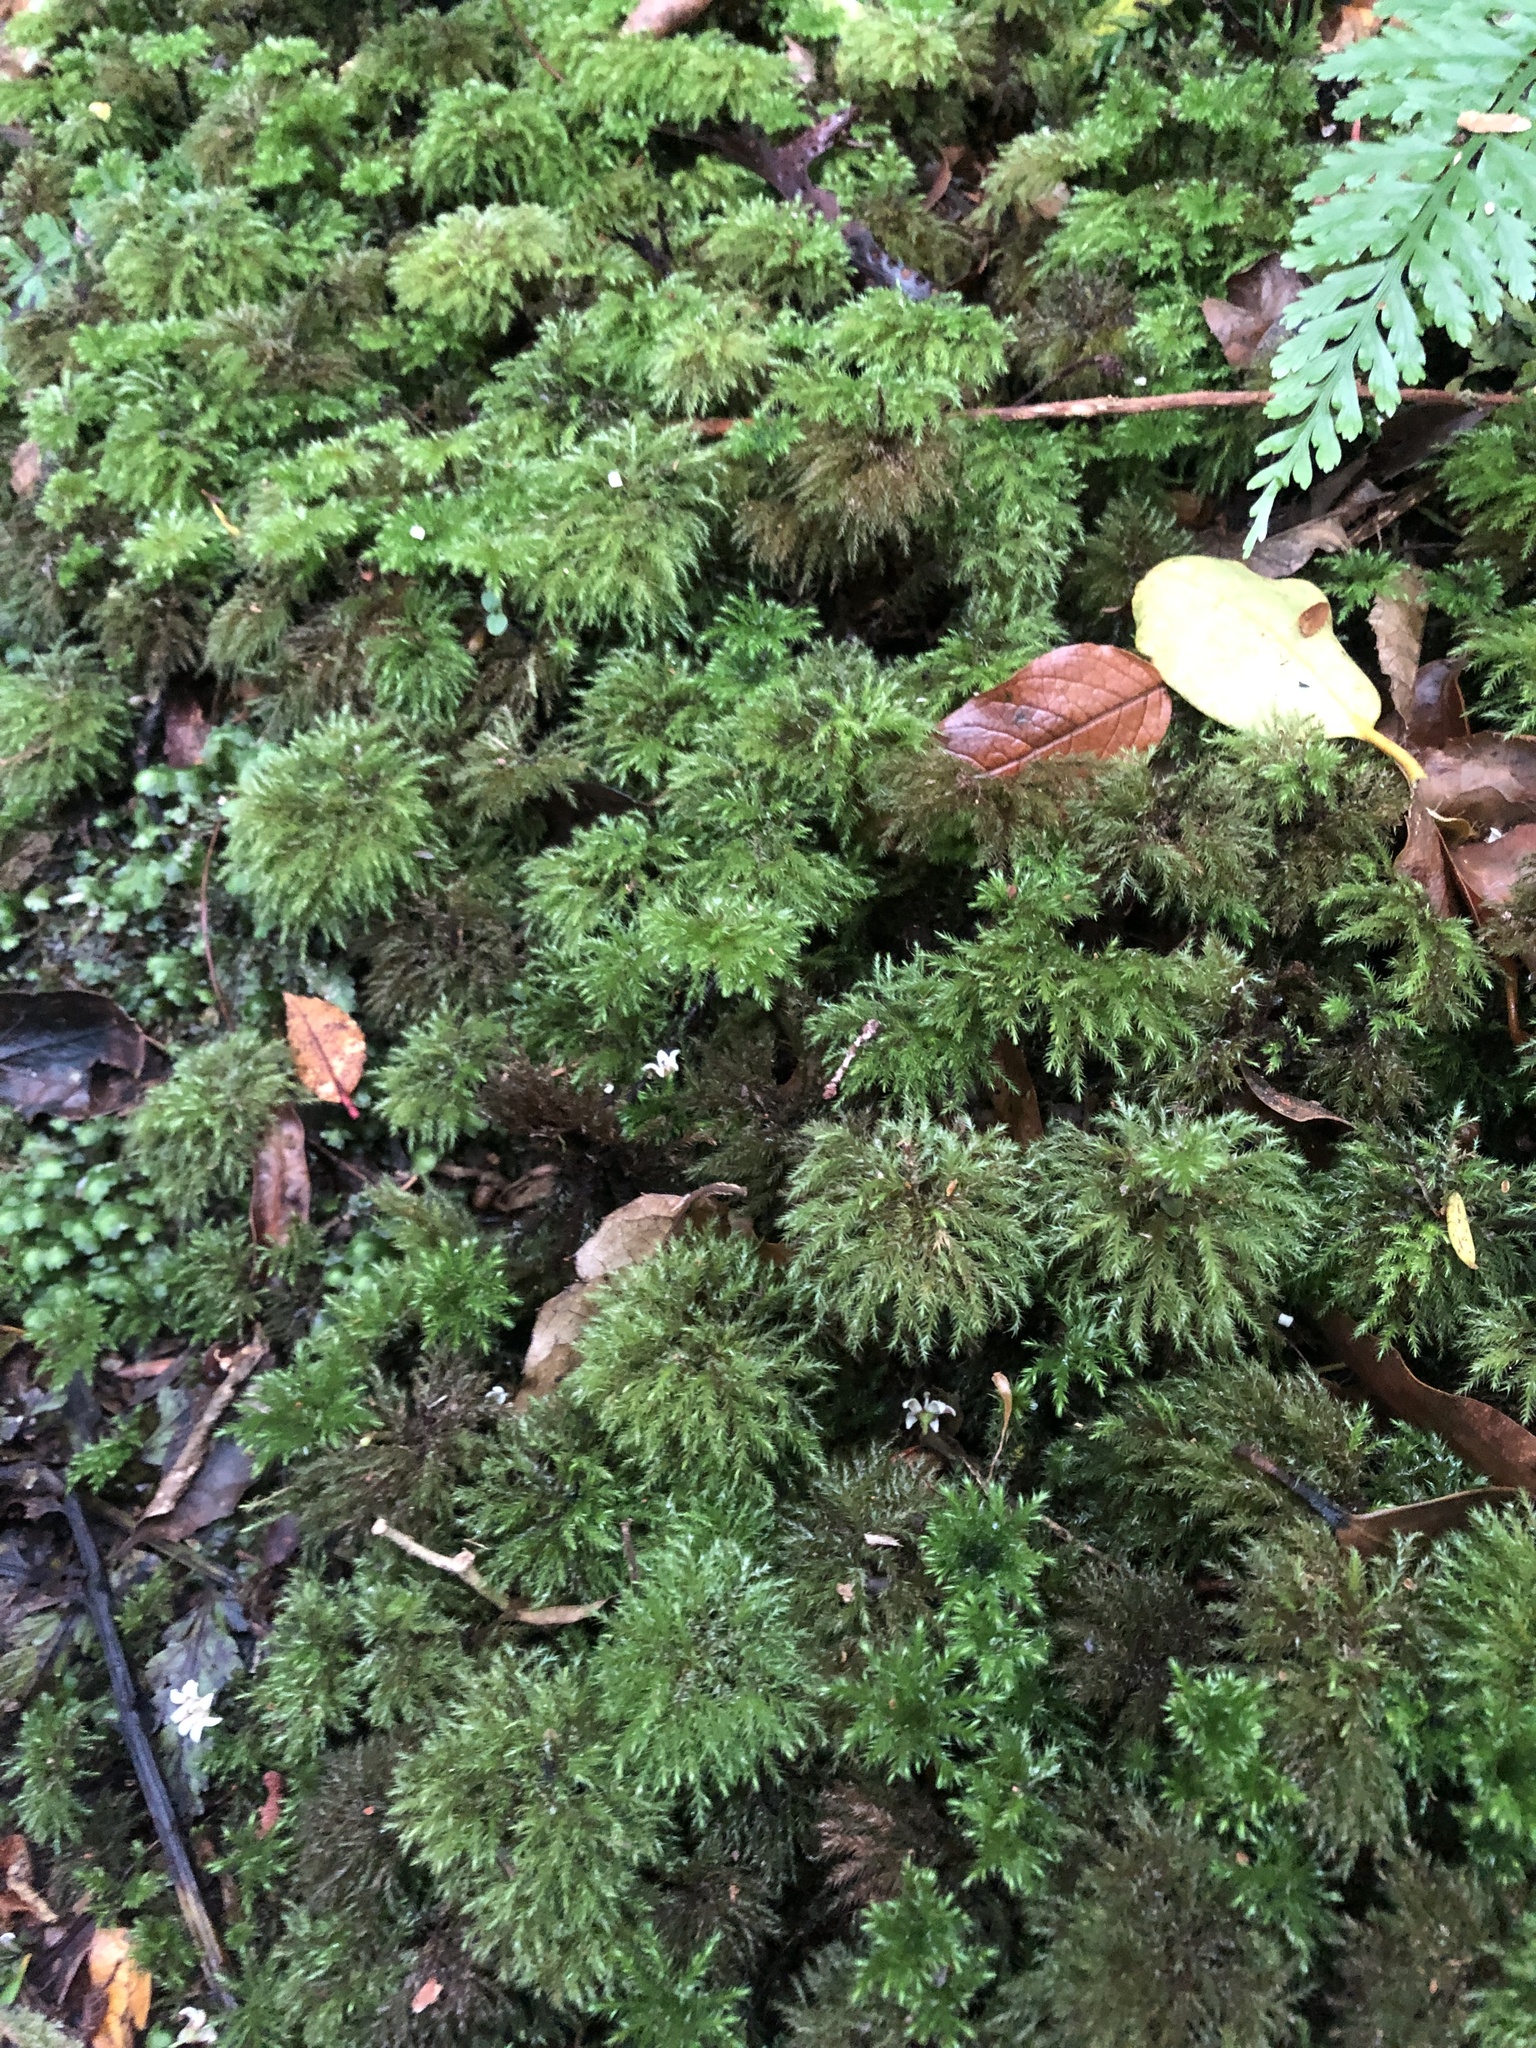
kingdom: Plantae
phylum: Bryophyta
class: Bryopsida
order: Hypnodendrales
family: Spiridentaceae
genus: Mniodendron
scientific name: Mniodendron comatum
